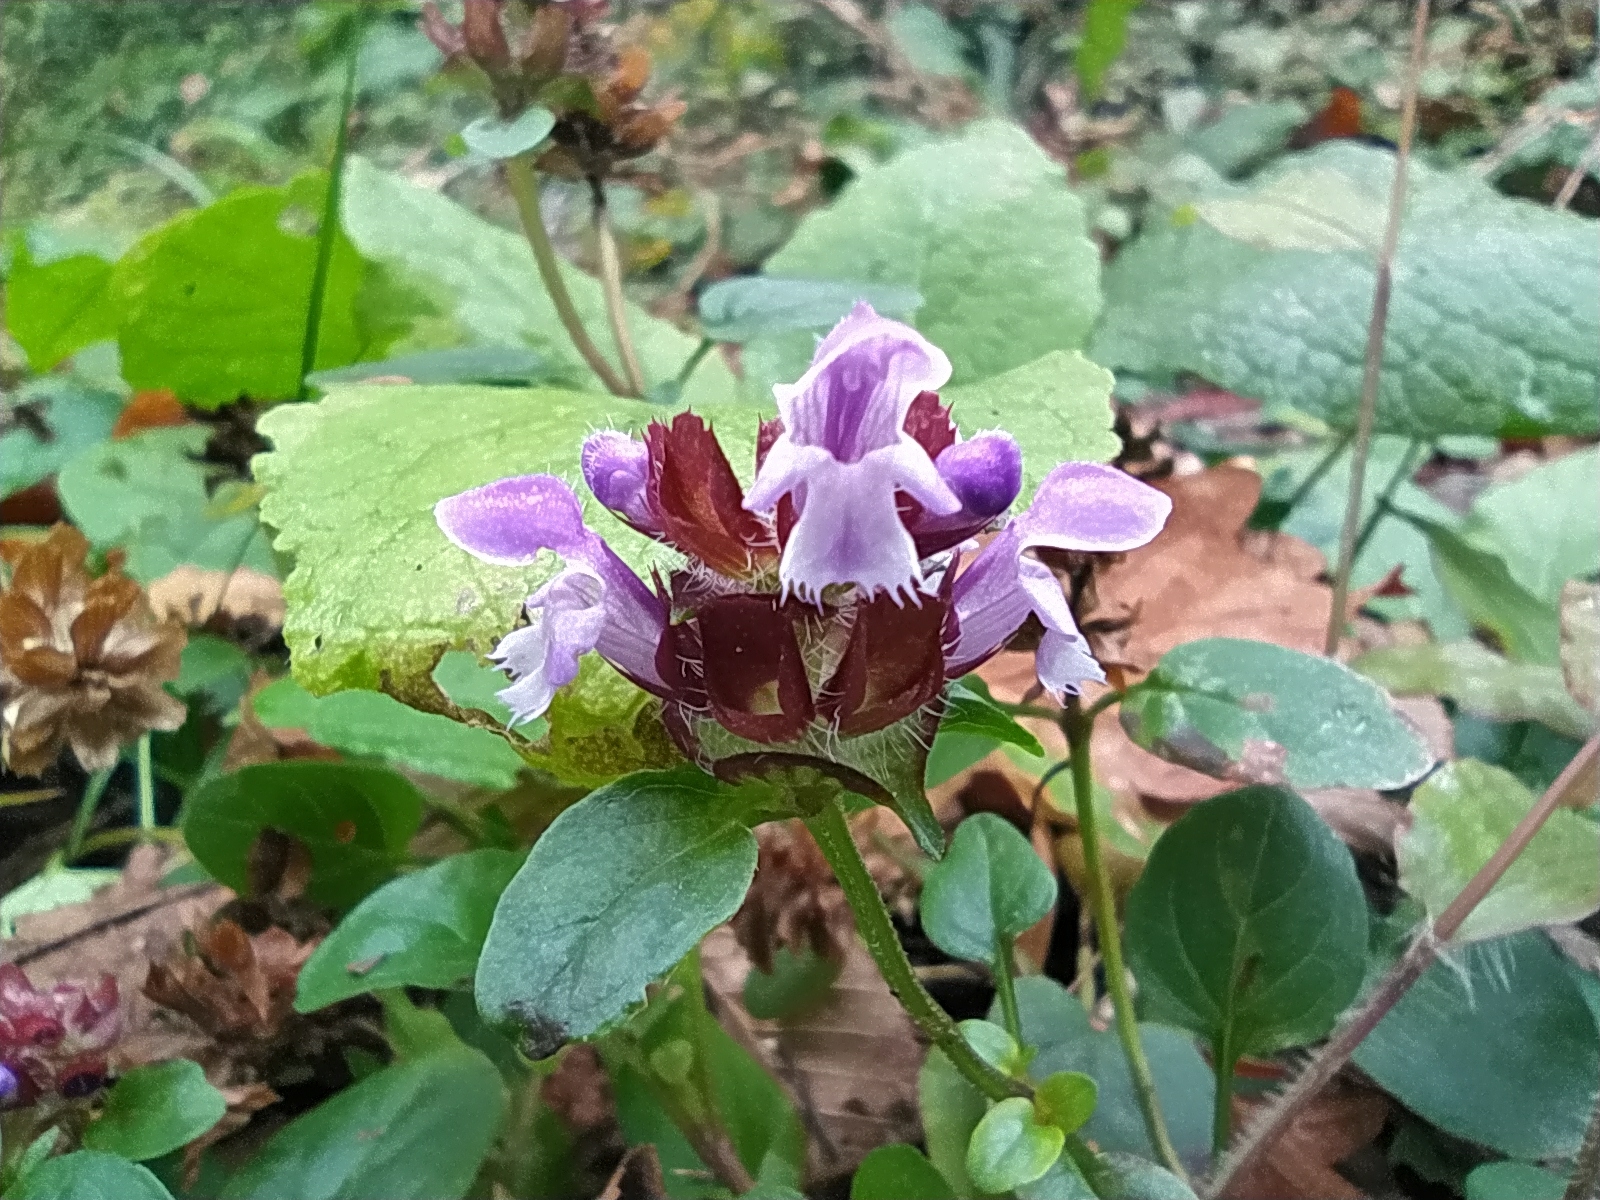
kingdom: Plantae
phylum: Tracheophyta
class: Magnoliopsida
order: Lamiales
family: Lamiaceae
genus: Prunella
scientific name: Prunella vulgaris
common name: Heal-all
